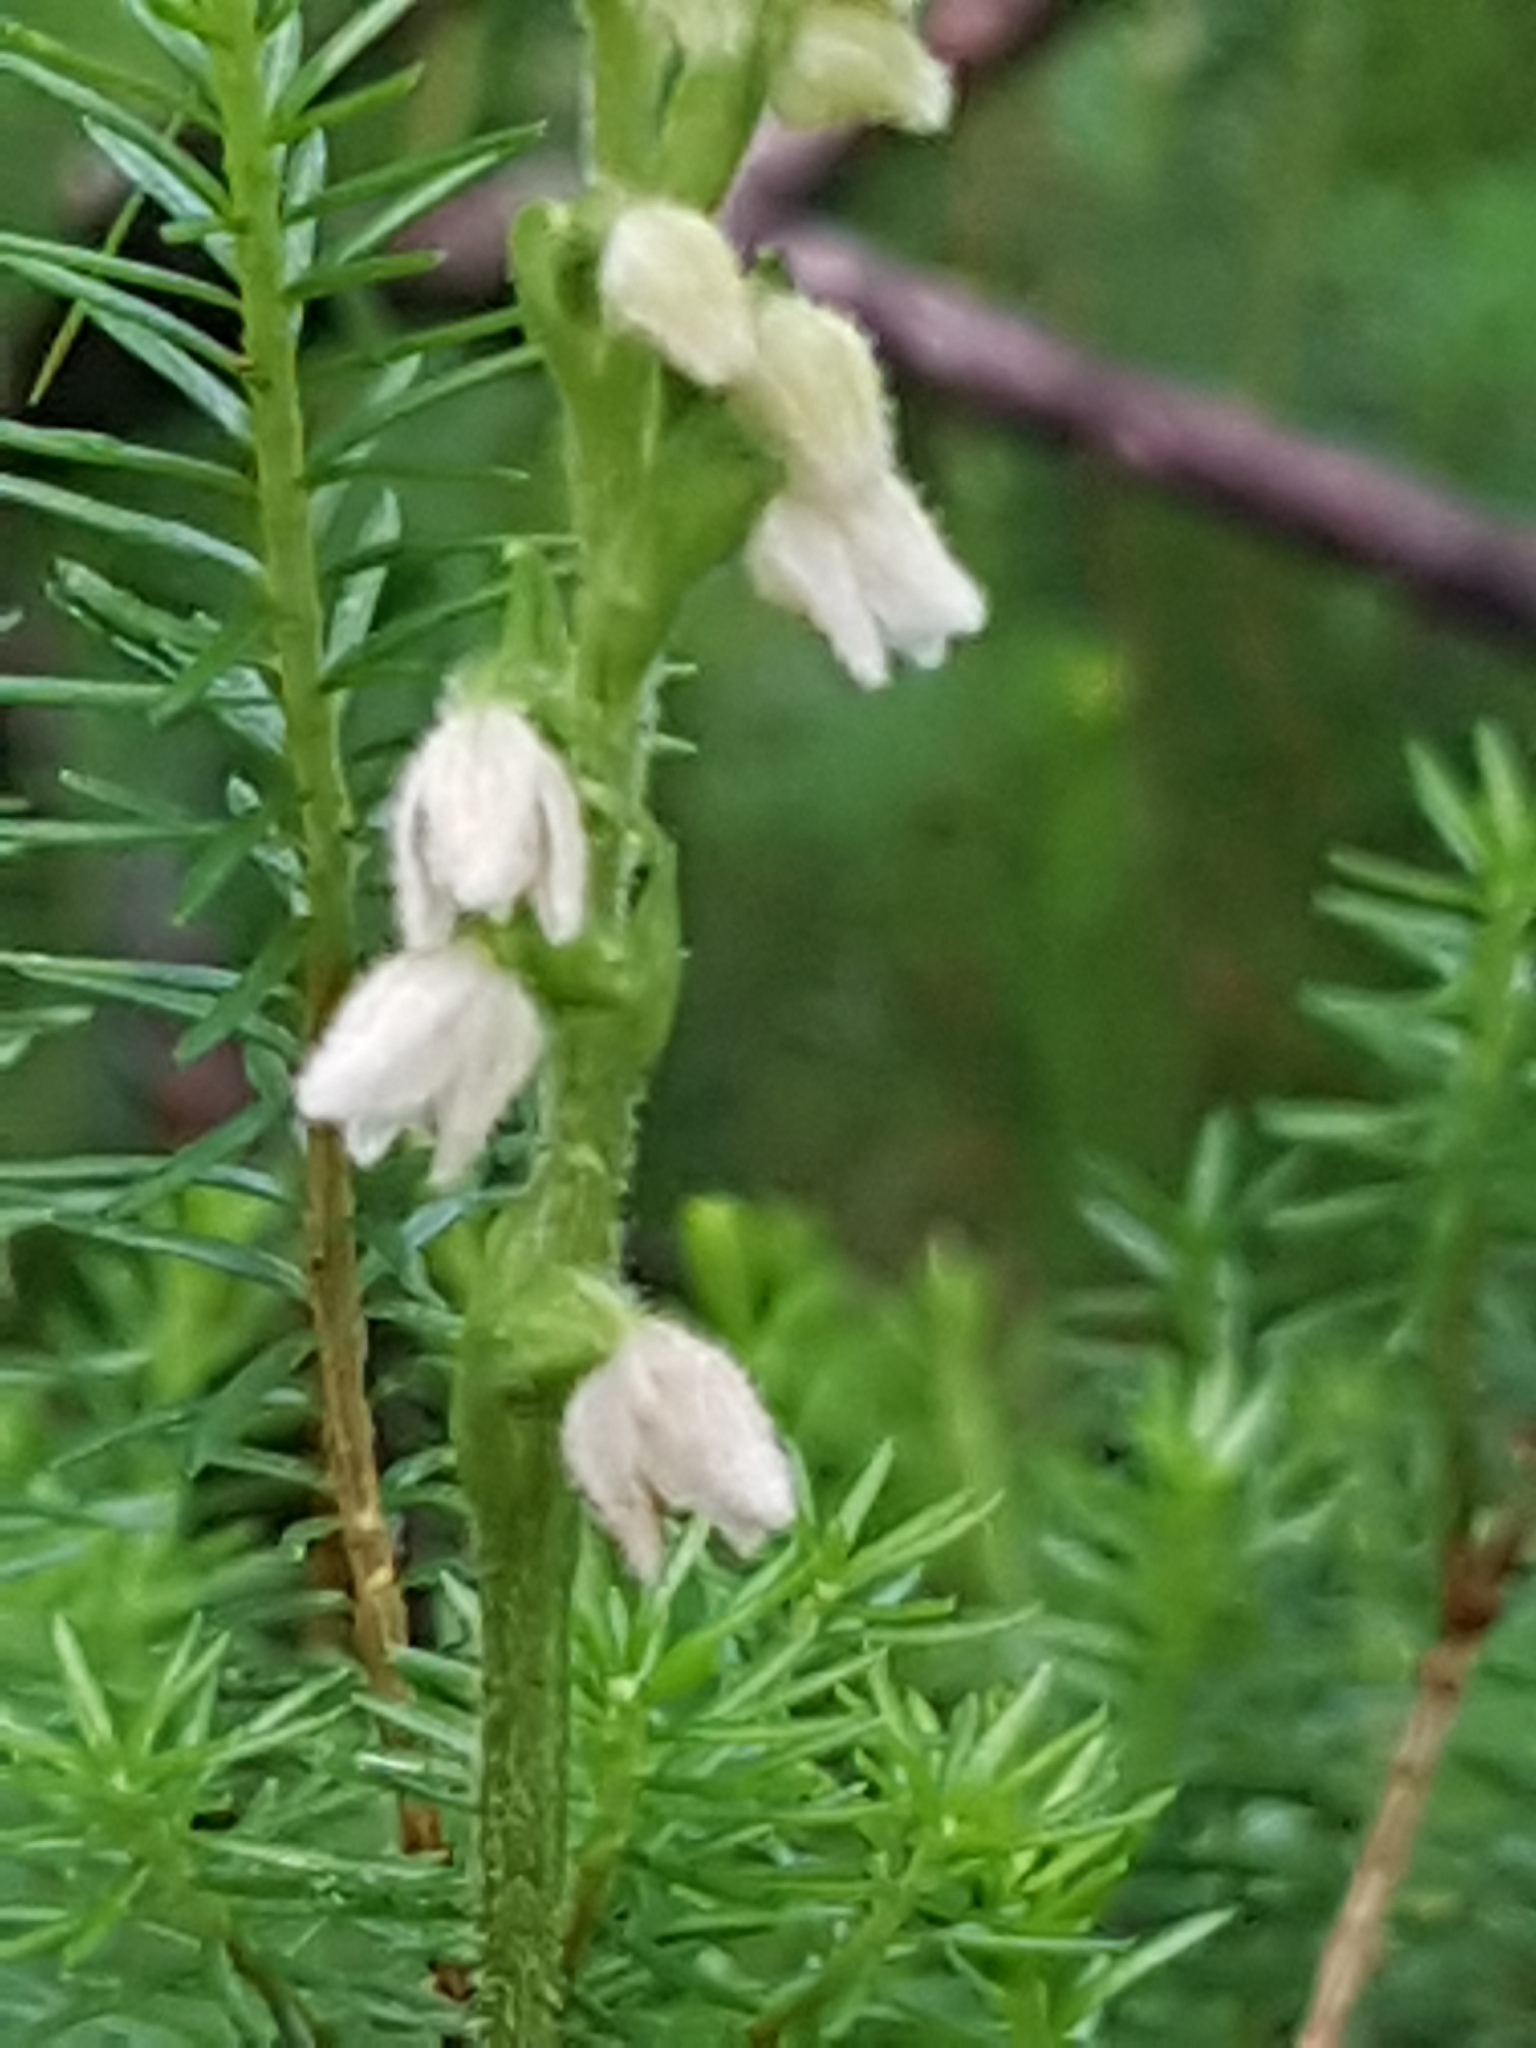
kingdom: Plantae
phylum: Tracheophyta
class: Liliopsida
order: Asparagales
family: Orchidaceae
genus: Goodyera
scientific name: Goodyera repens
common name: Creeping lady's-tresses
